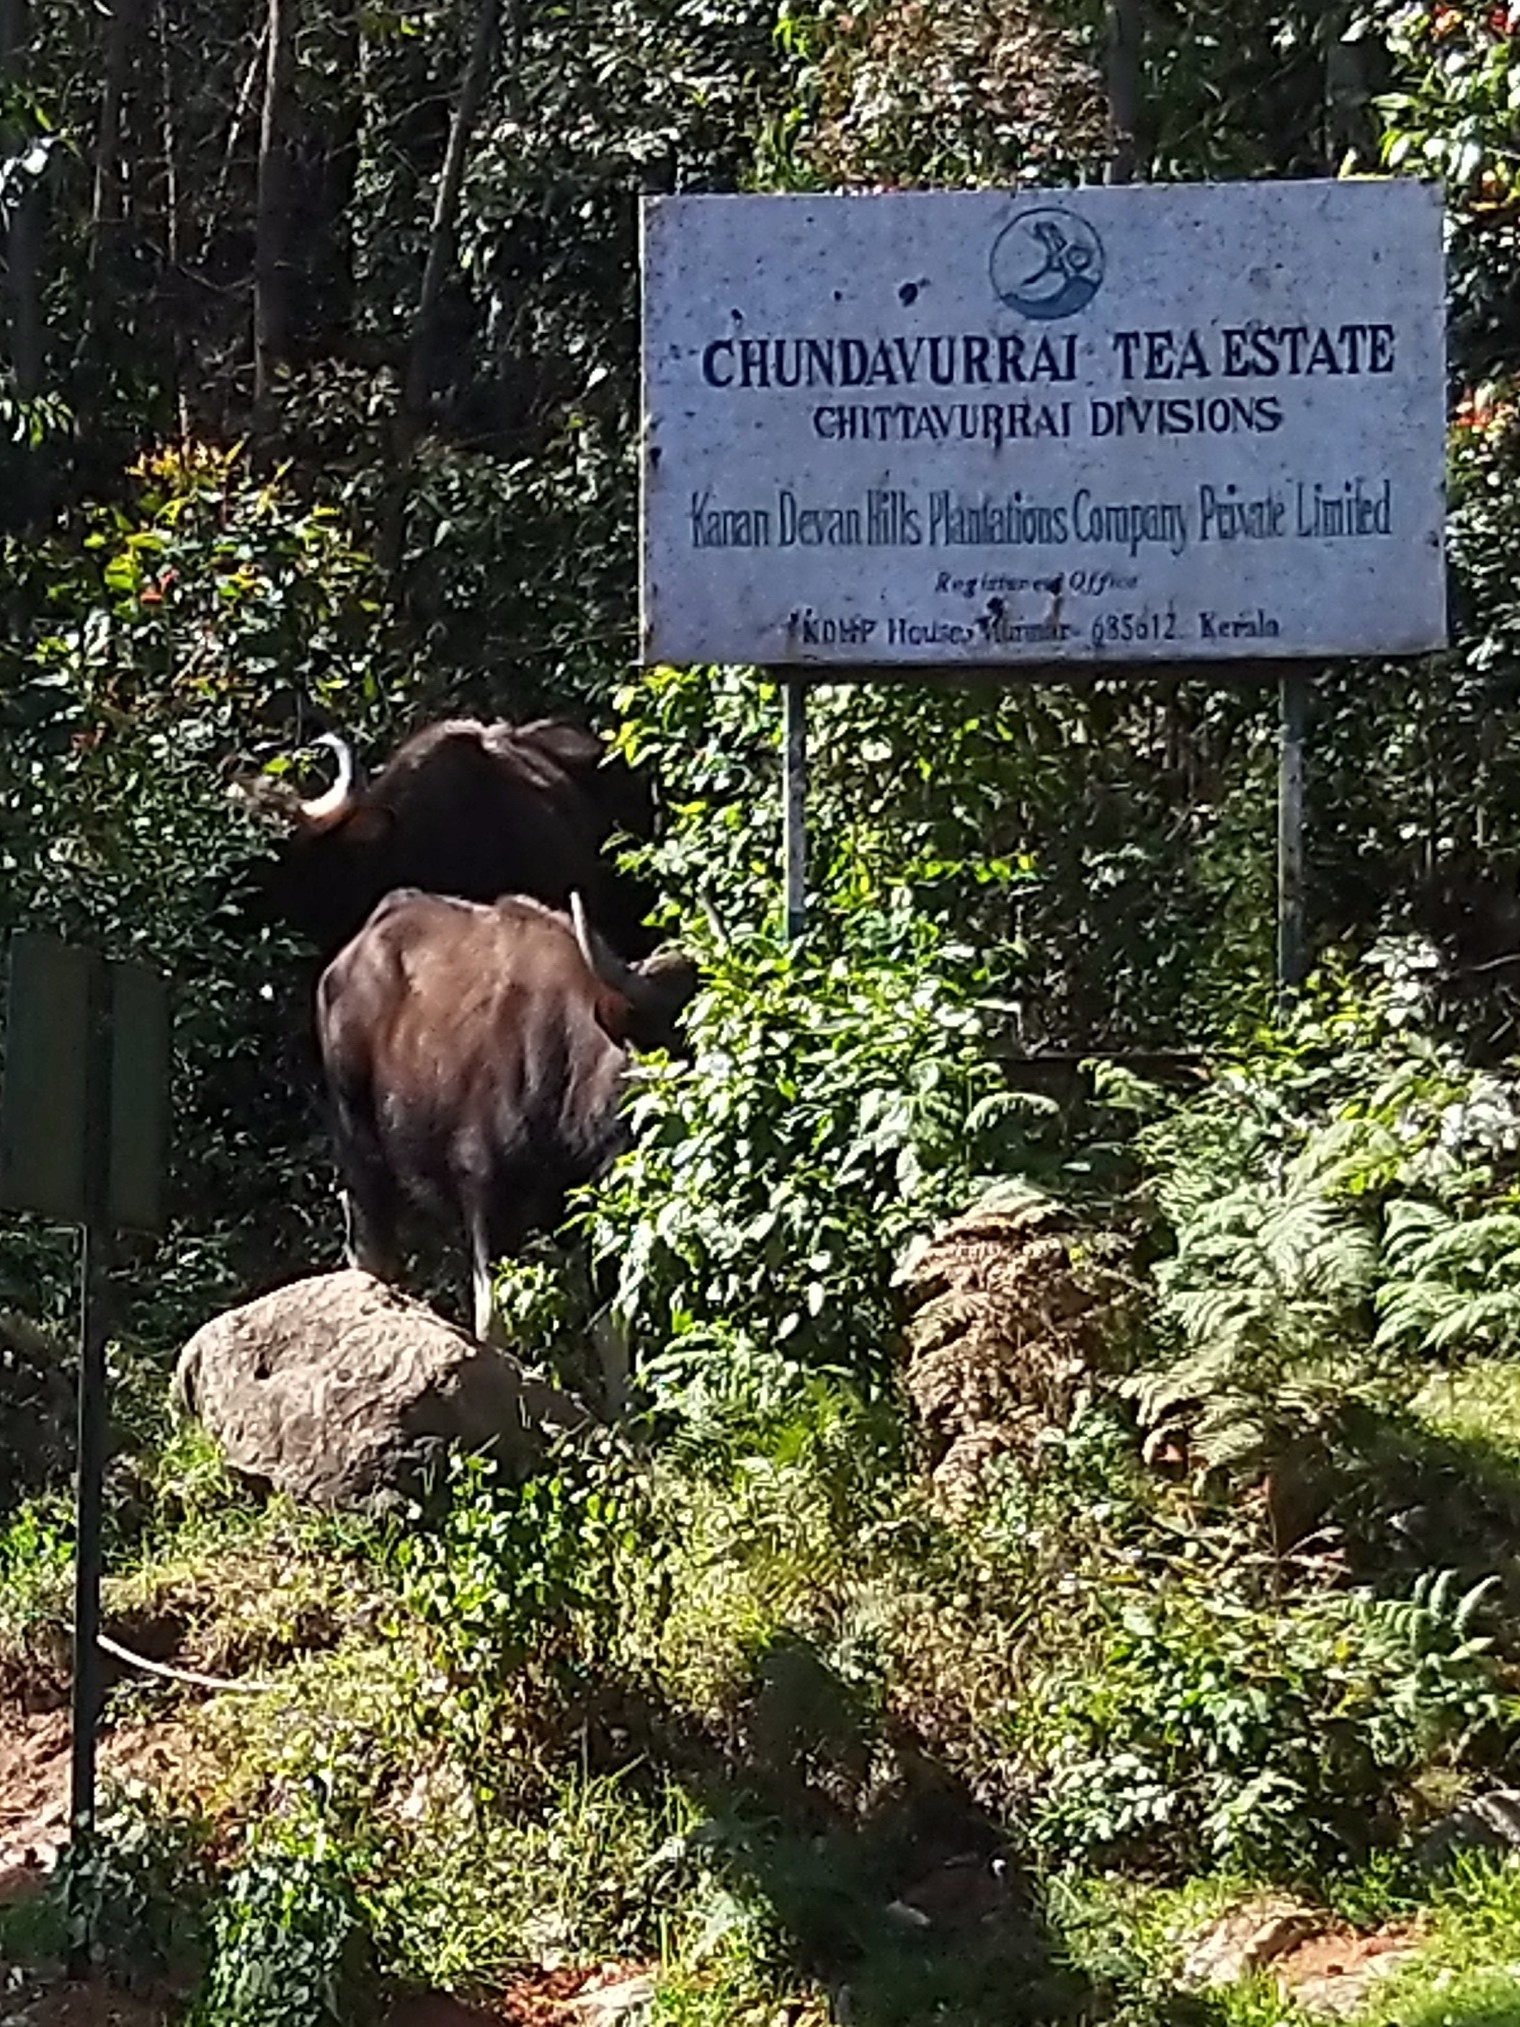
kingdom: Animalia
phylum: Chordata
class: Mammalia
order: Artiodactyla
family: Bovidae
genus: Bos
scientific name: Bos frontalis
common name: Gaur
